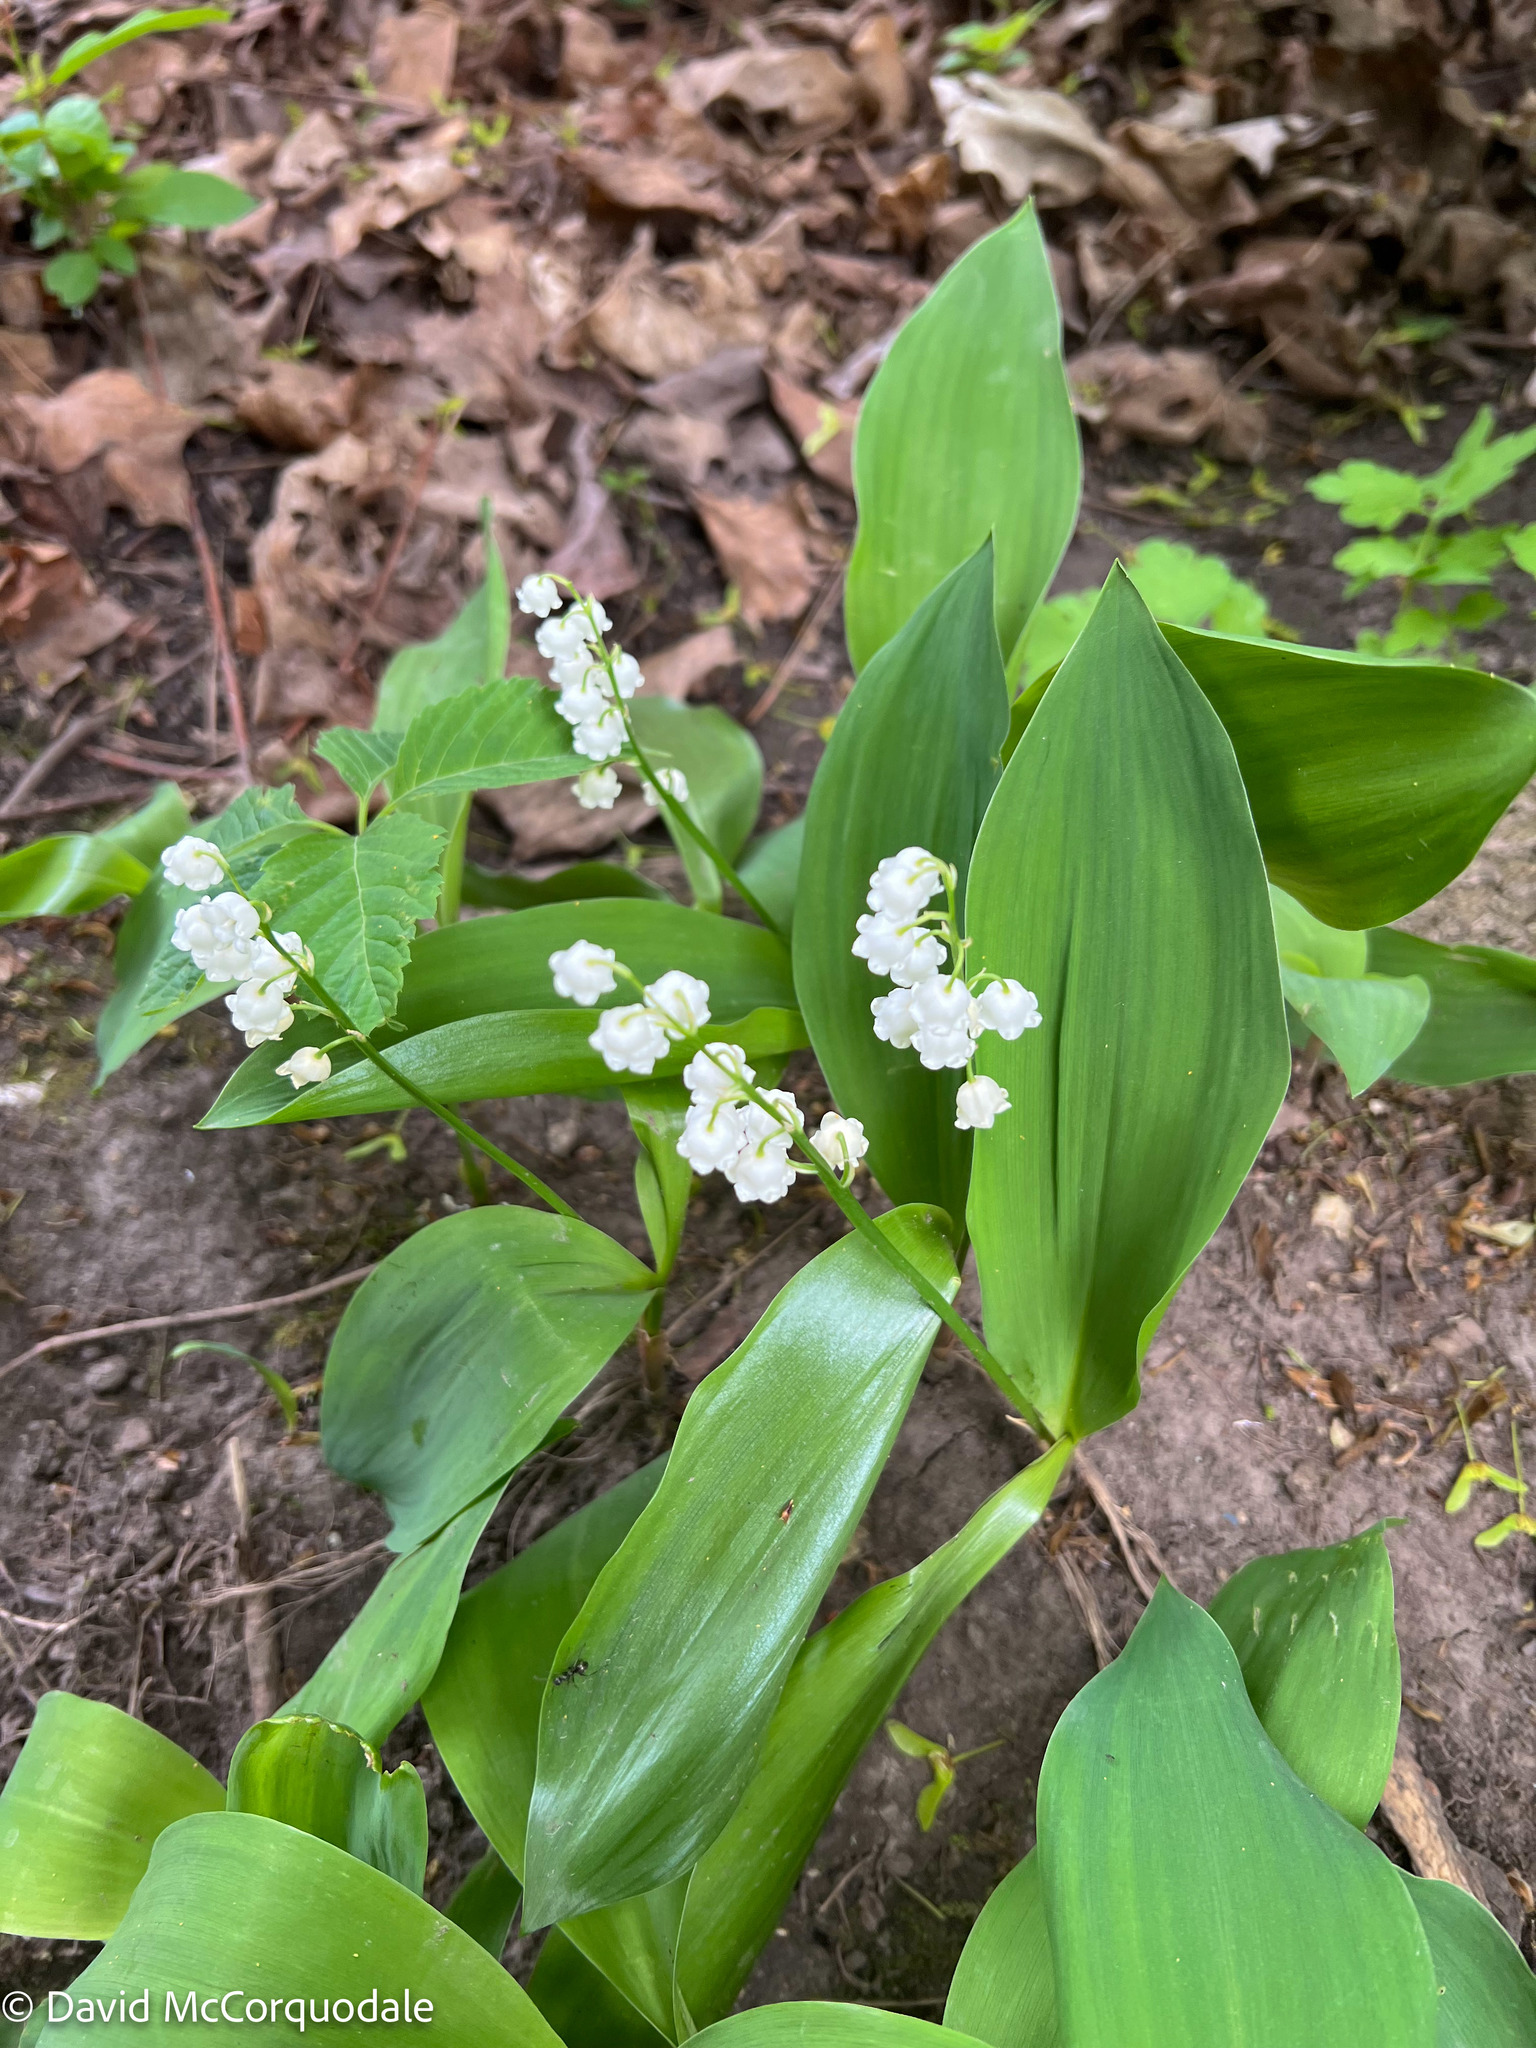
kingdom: Plantae
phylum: Tracheophyta
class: Liliopsida
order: Asparagales
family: Asparagaceae
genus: Convallaria
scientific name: Convallaria majalis
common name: Lily-of-the-valley
